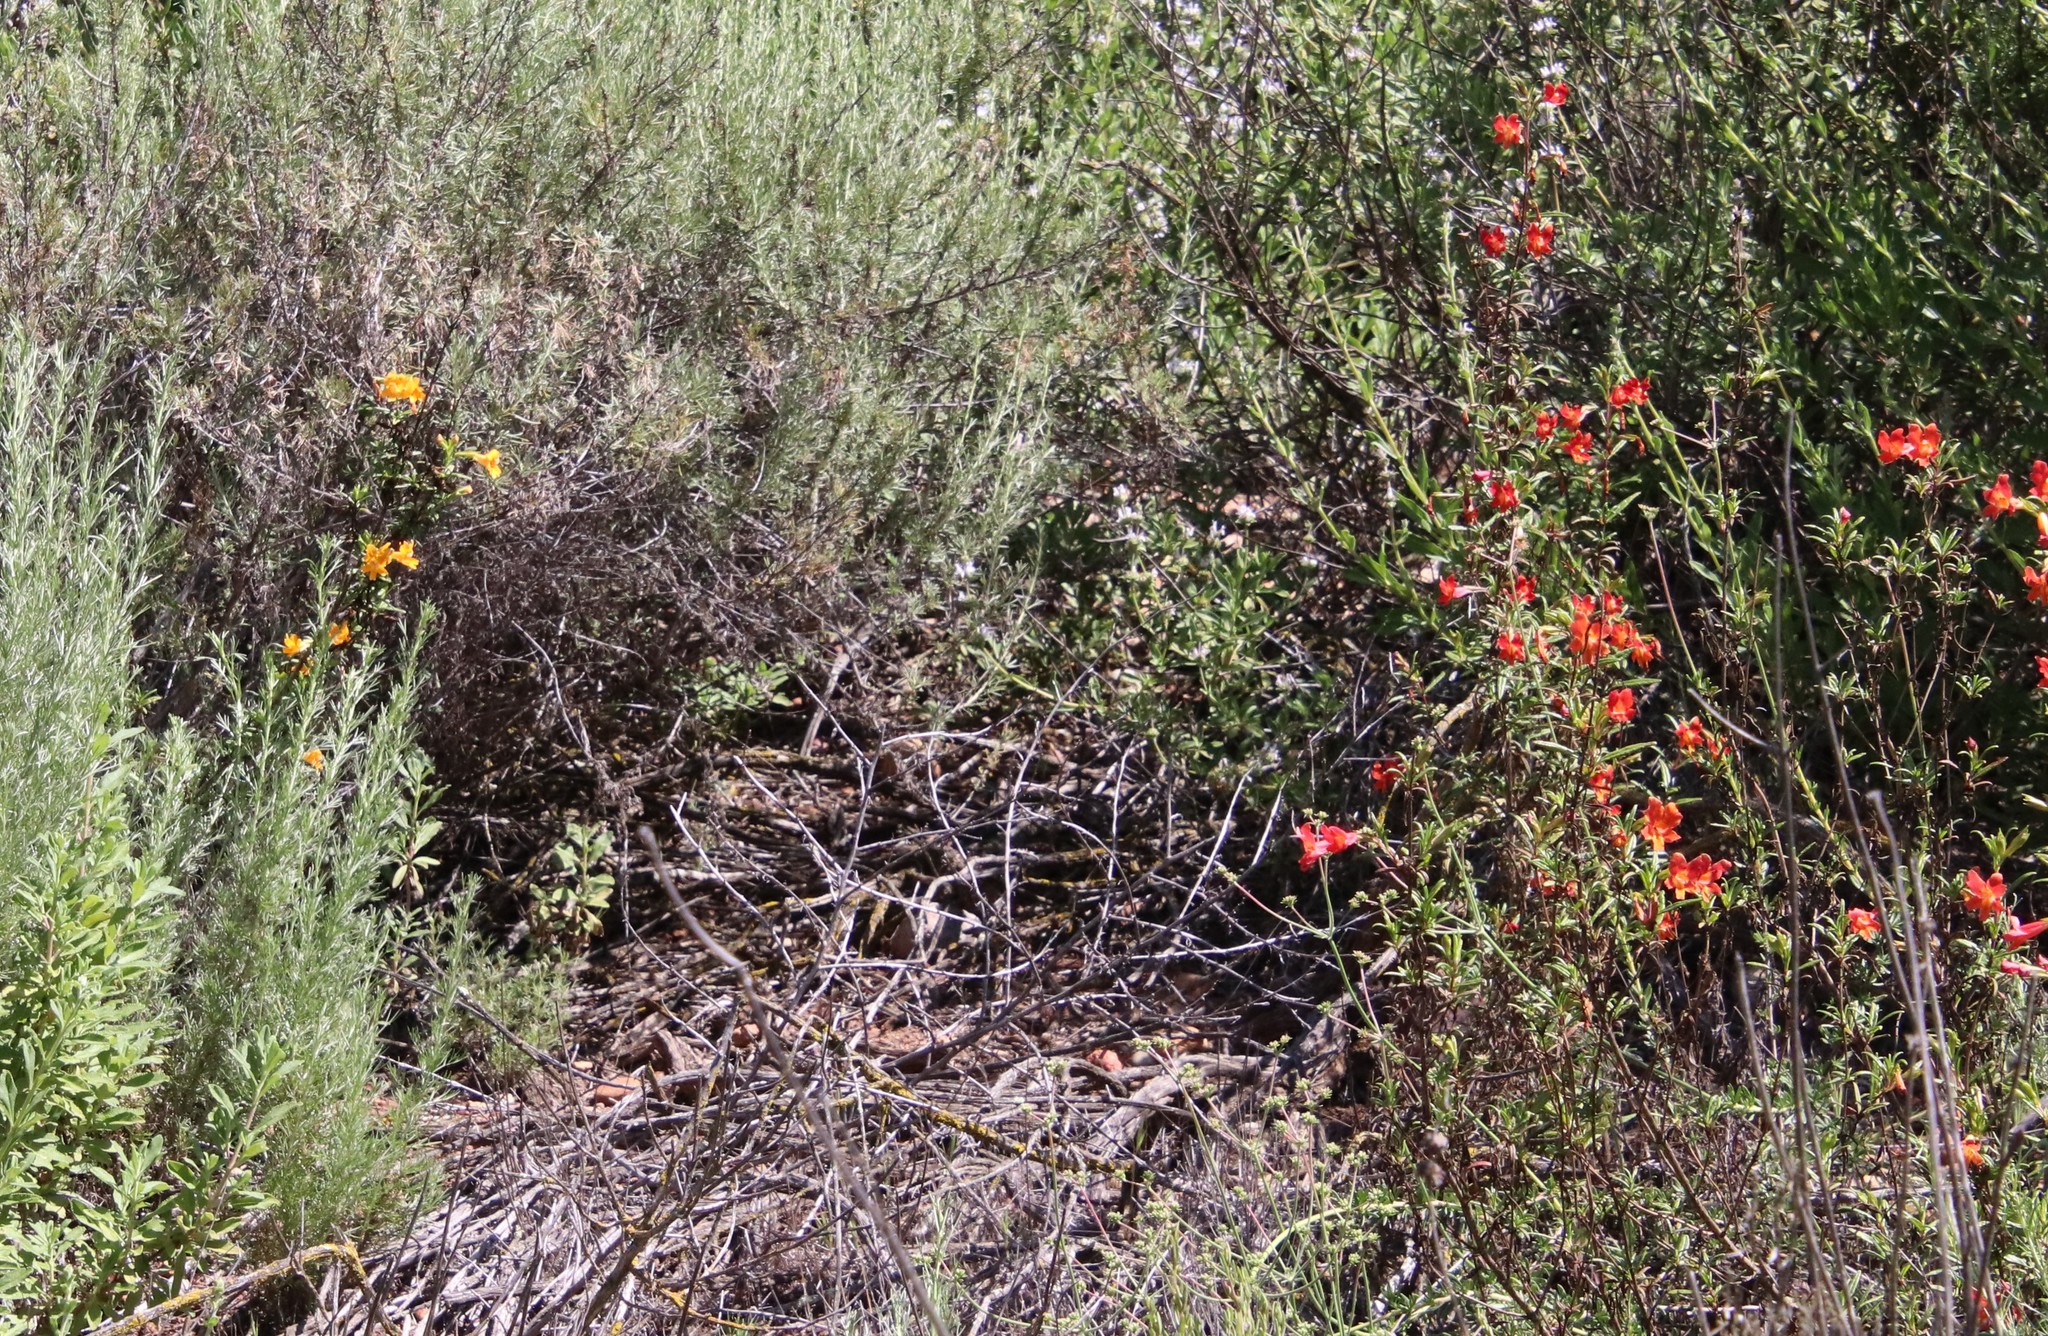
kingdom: Plantae
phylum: Tracheophyta
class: Magnoliopsida
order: Lamiales
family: Phrymaceae
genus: Diplacus
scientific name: Diplacus australis
